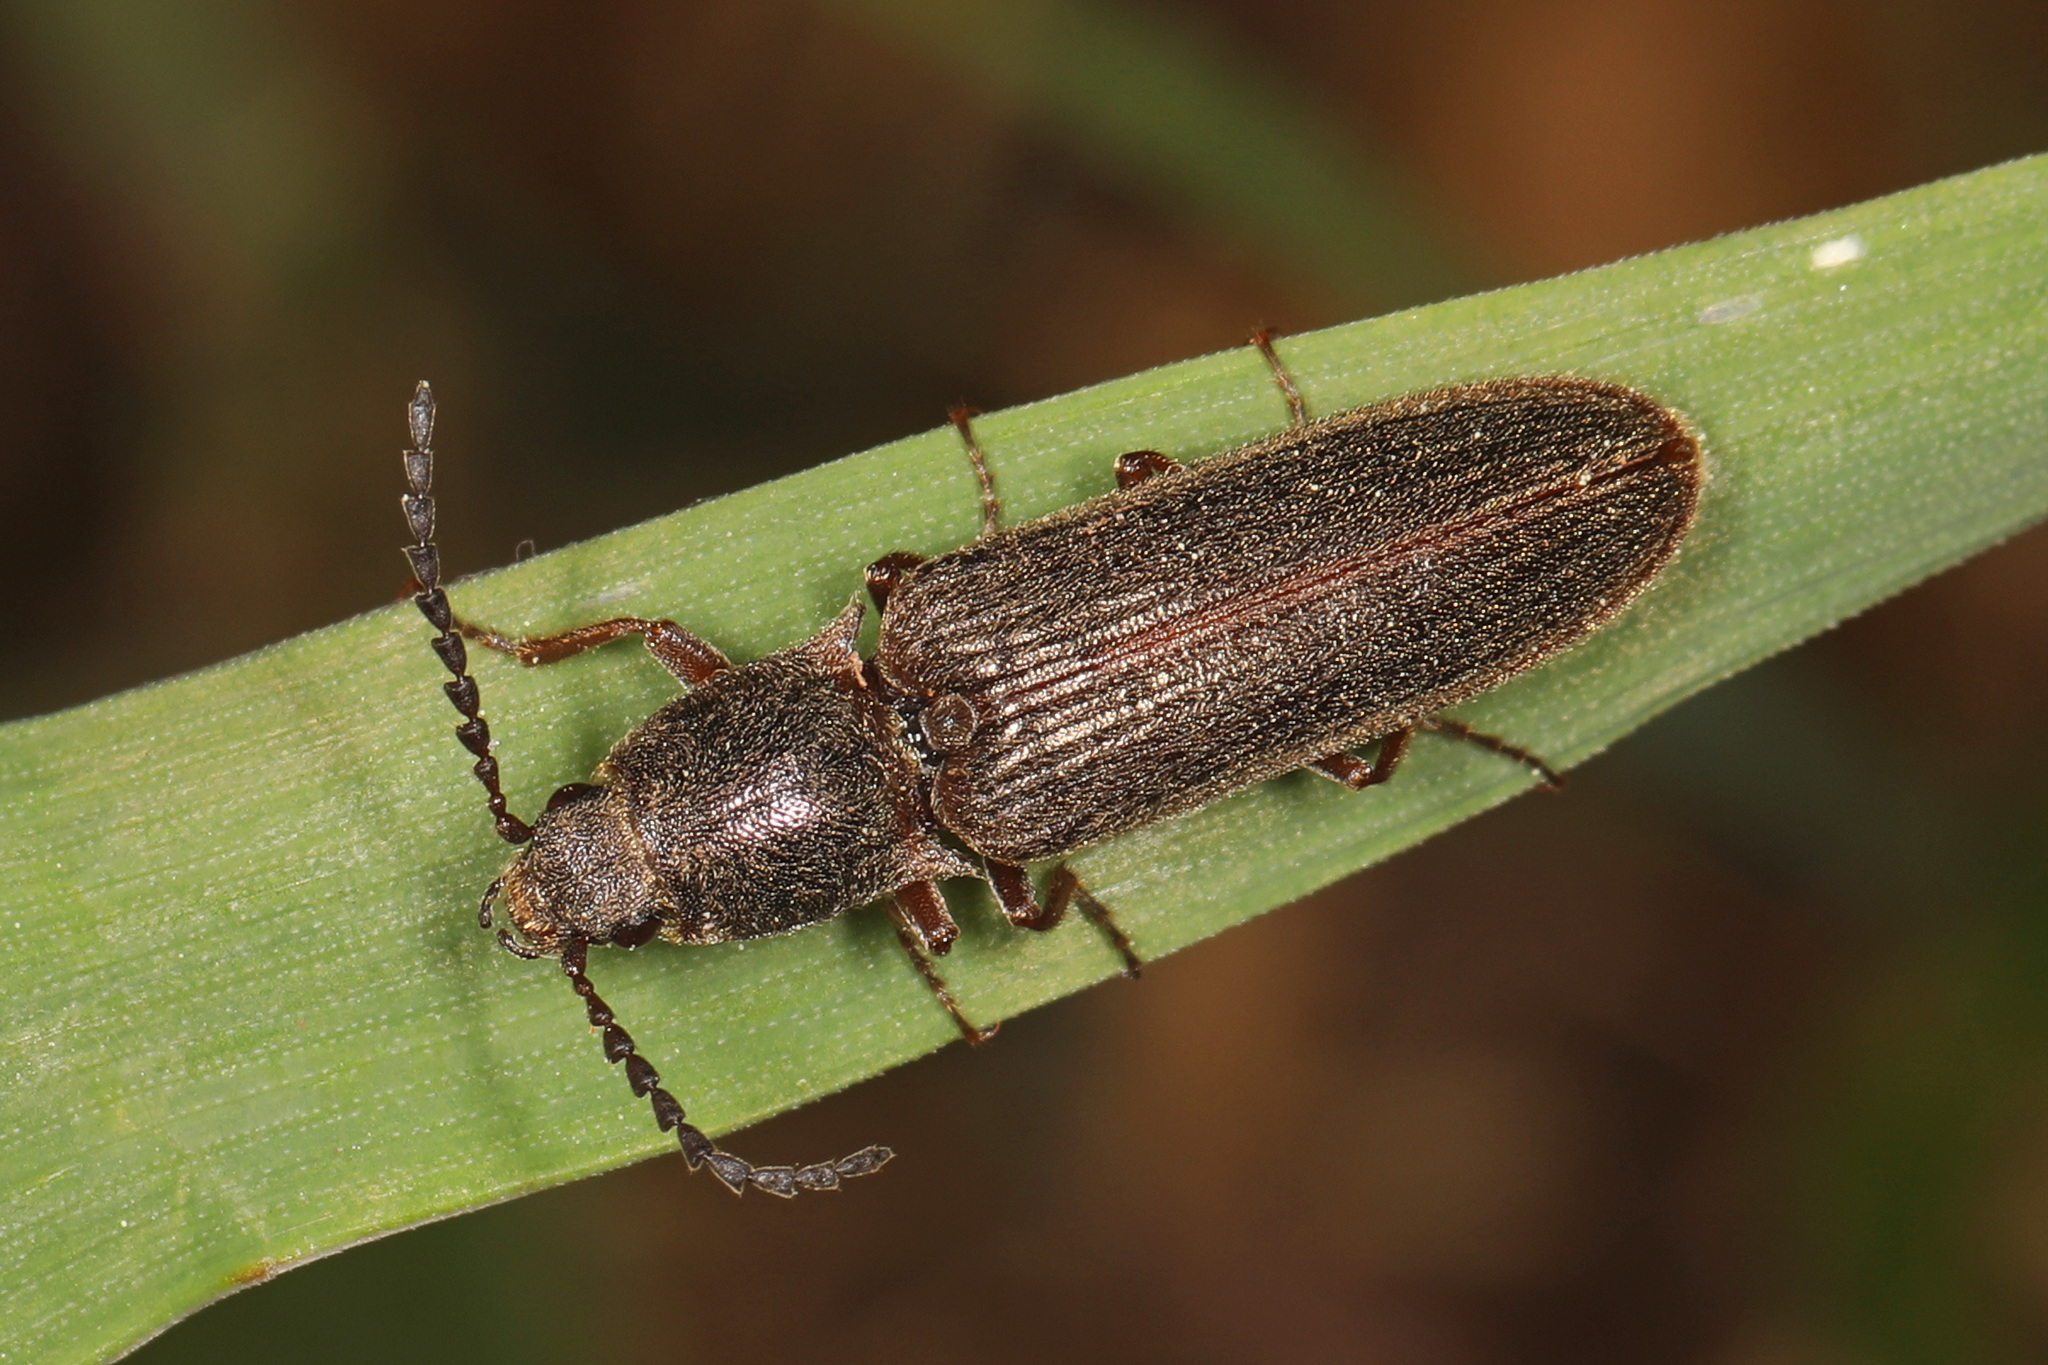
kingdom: Animalia
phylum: Arthropoda
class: Insecta
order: Coleoptera
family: Elateridae
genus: Sylvanelater
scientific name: Sylvanelater cylindriformis
